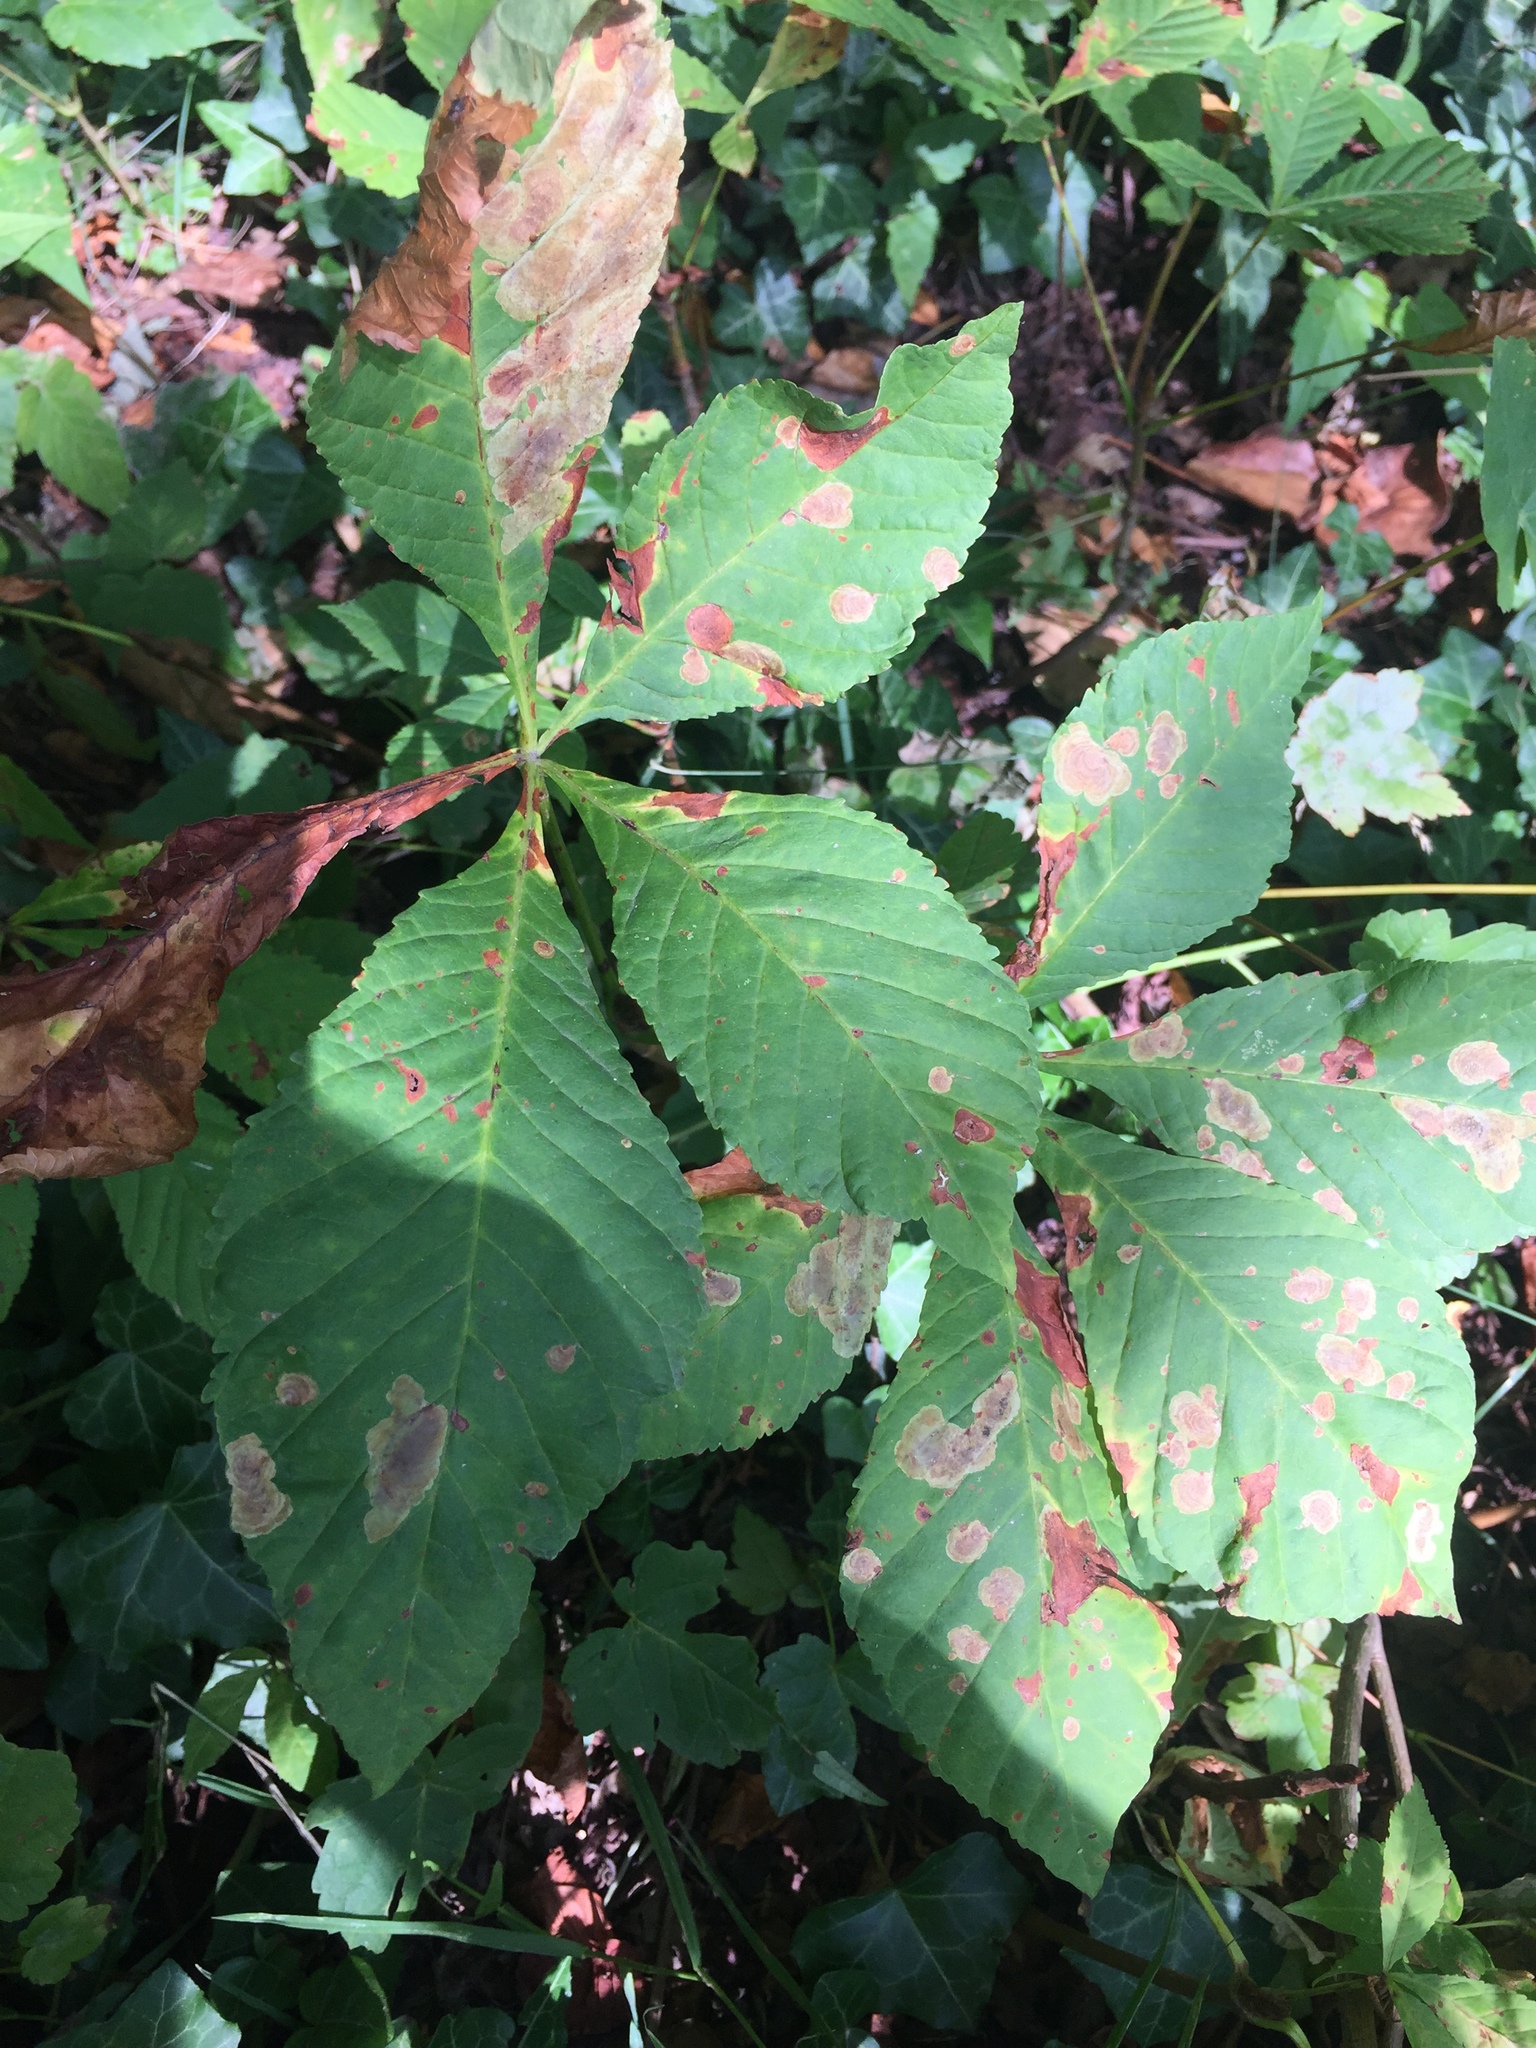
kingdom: Animalia
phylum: Arthropoda
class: Insecta
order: Lepidoptera
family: Gracillariidae
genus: Cameraria
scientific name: Cameraria ohridella
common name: Horse-chestnut leaf-miner
